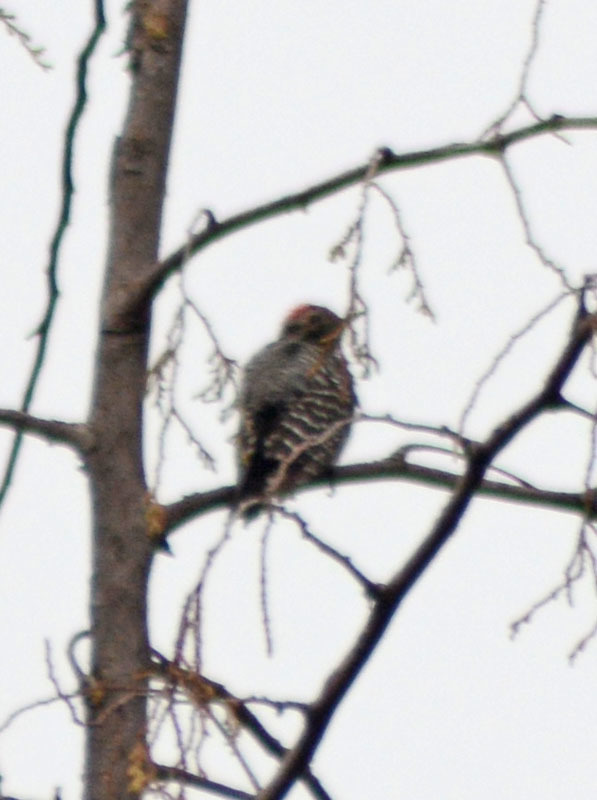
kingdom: Animalia
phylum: Chordata
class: Aves
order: Piciformes
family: Picidae
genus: Dryobates
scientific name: Dryobates scalaris
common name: Ladder-backed woodpecker
